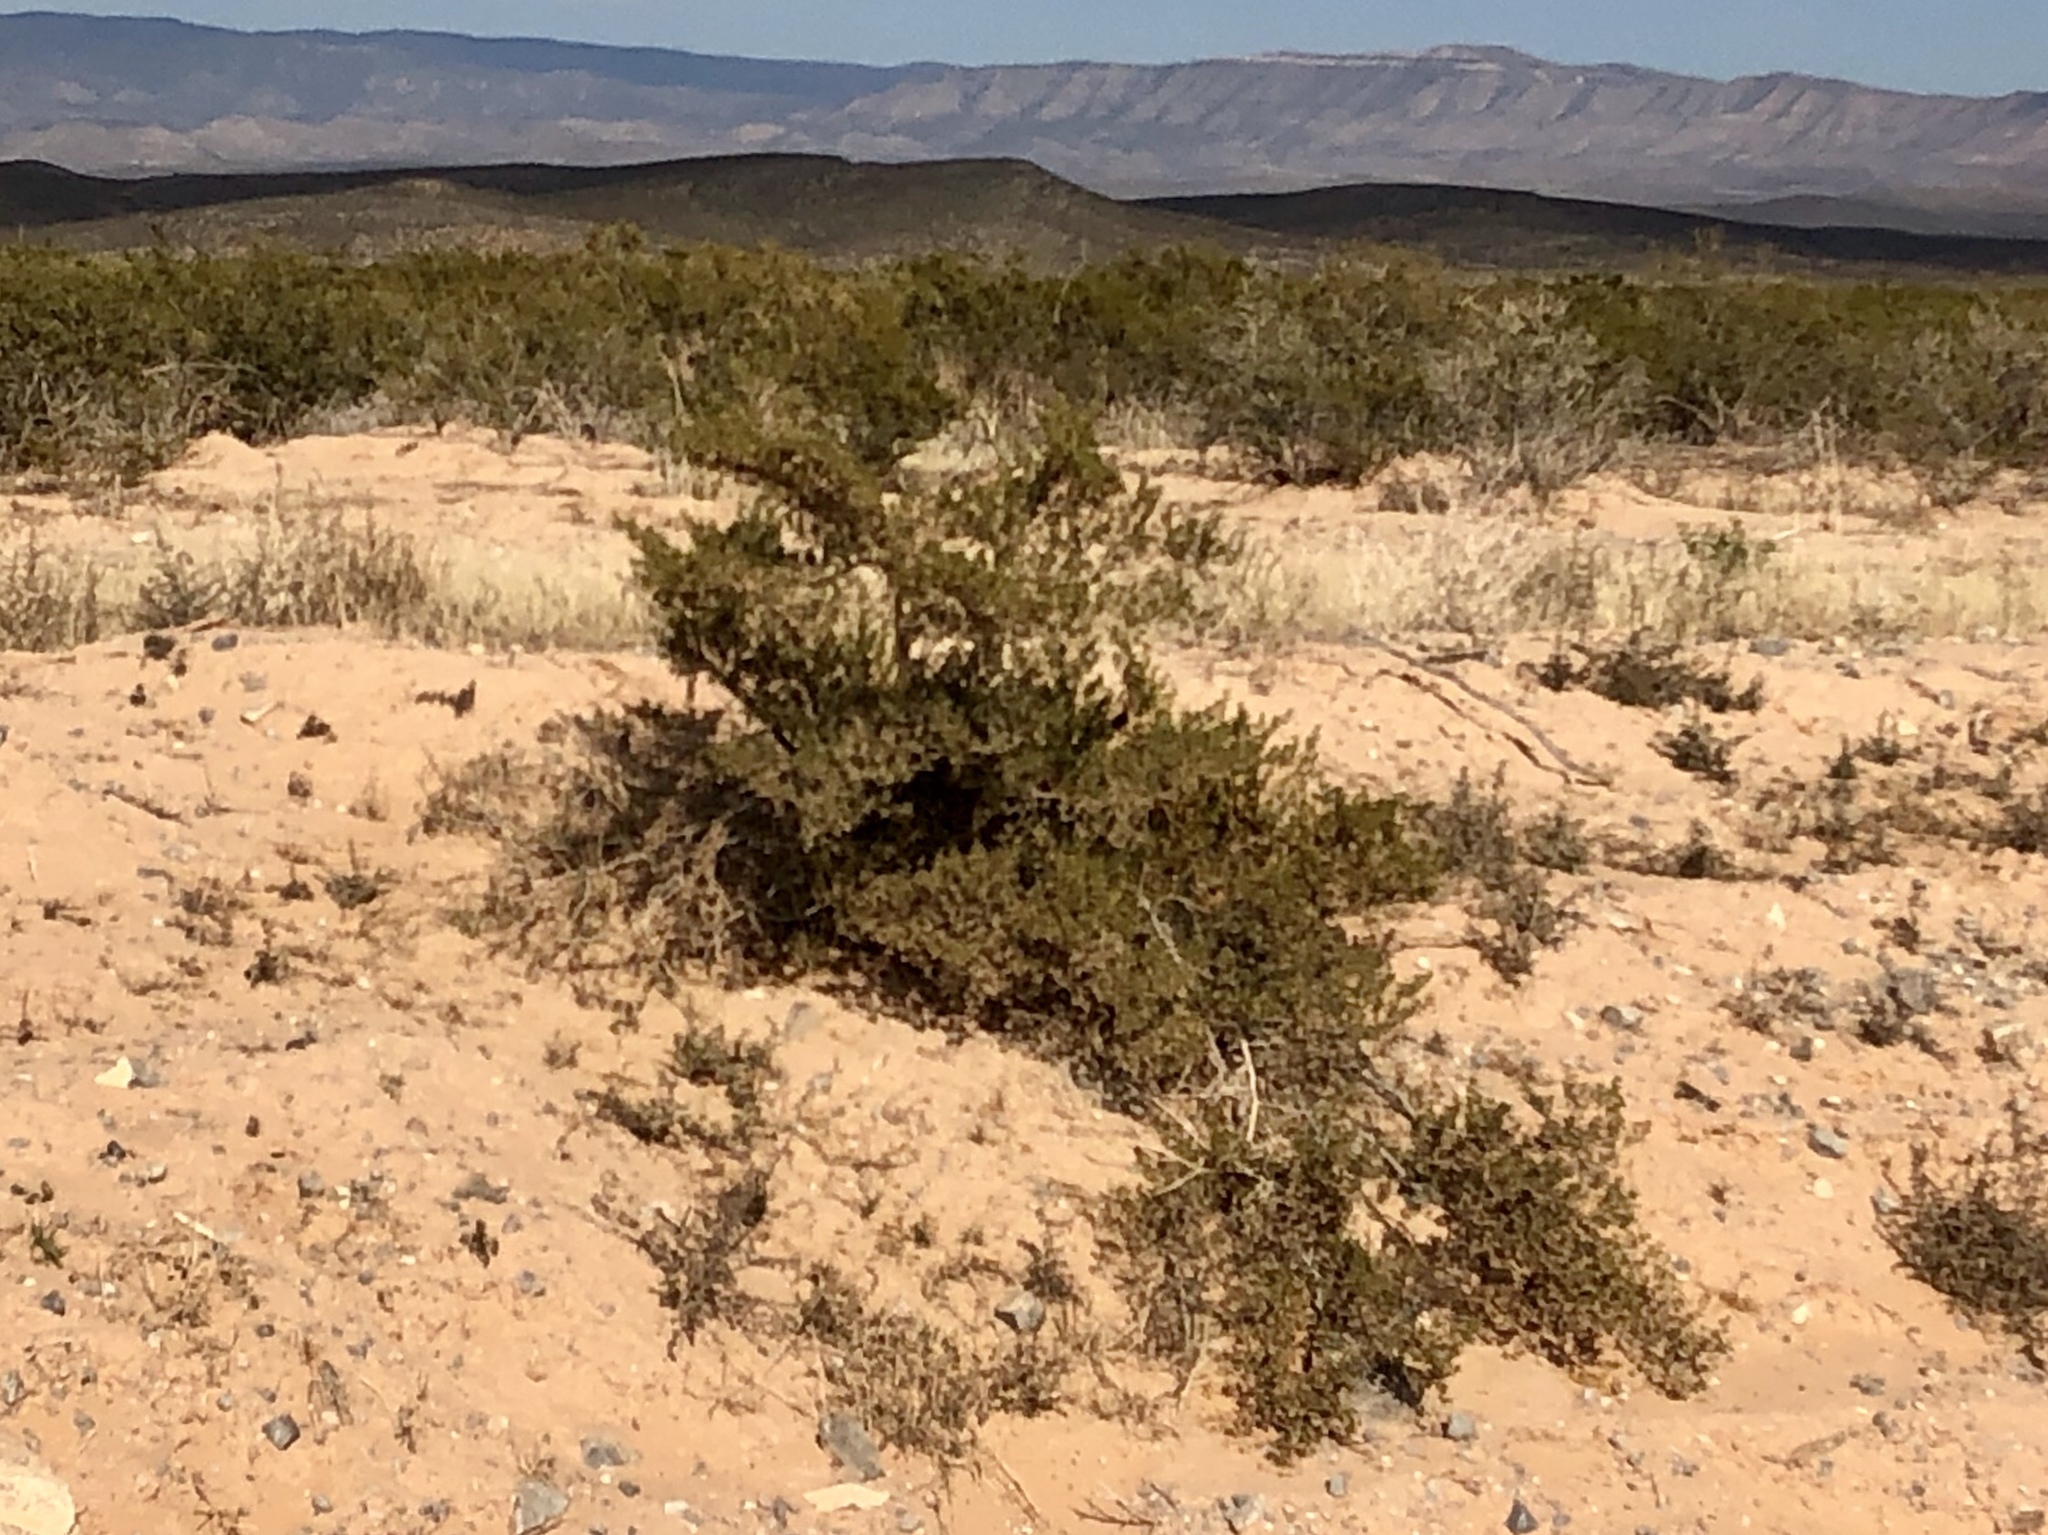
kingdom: Plantae
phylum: Tracheophyta
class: Magnoliopsida
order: Zygophyllales
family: Zygophyllaceae
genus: Larrea
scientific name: Larrea tridentata
